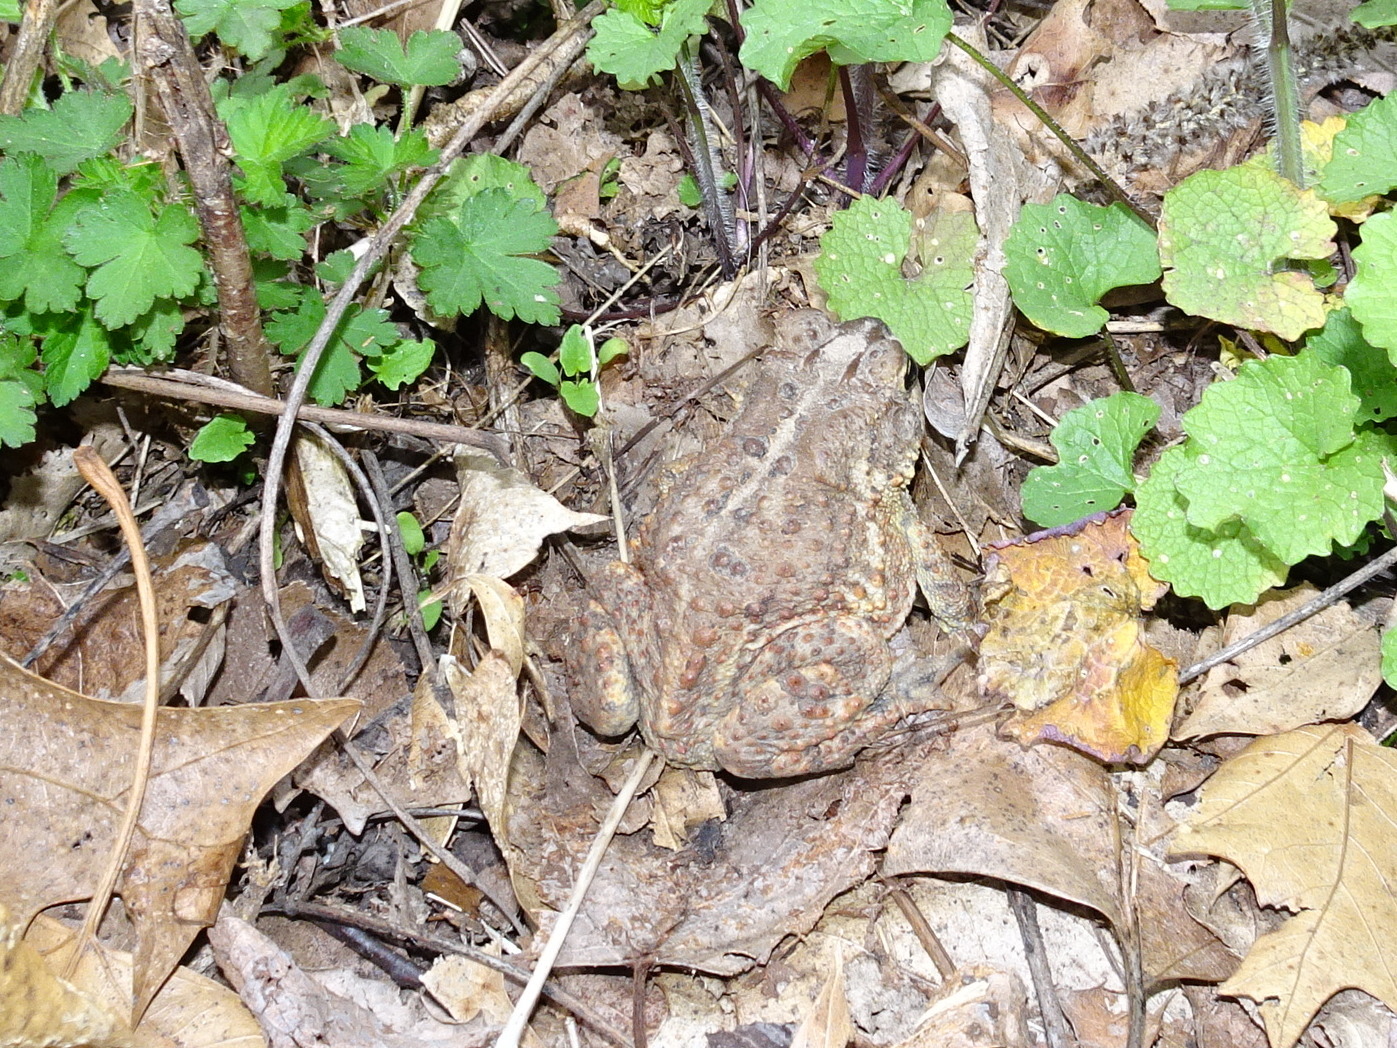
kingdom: Animalia
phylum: Chordata
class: Amphibia
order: Anura
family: Bufonidae
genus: Anaxyrus
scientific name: Anaxyrus americanus
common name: American toad
